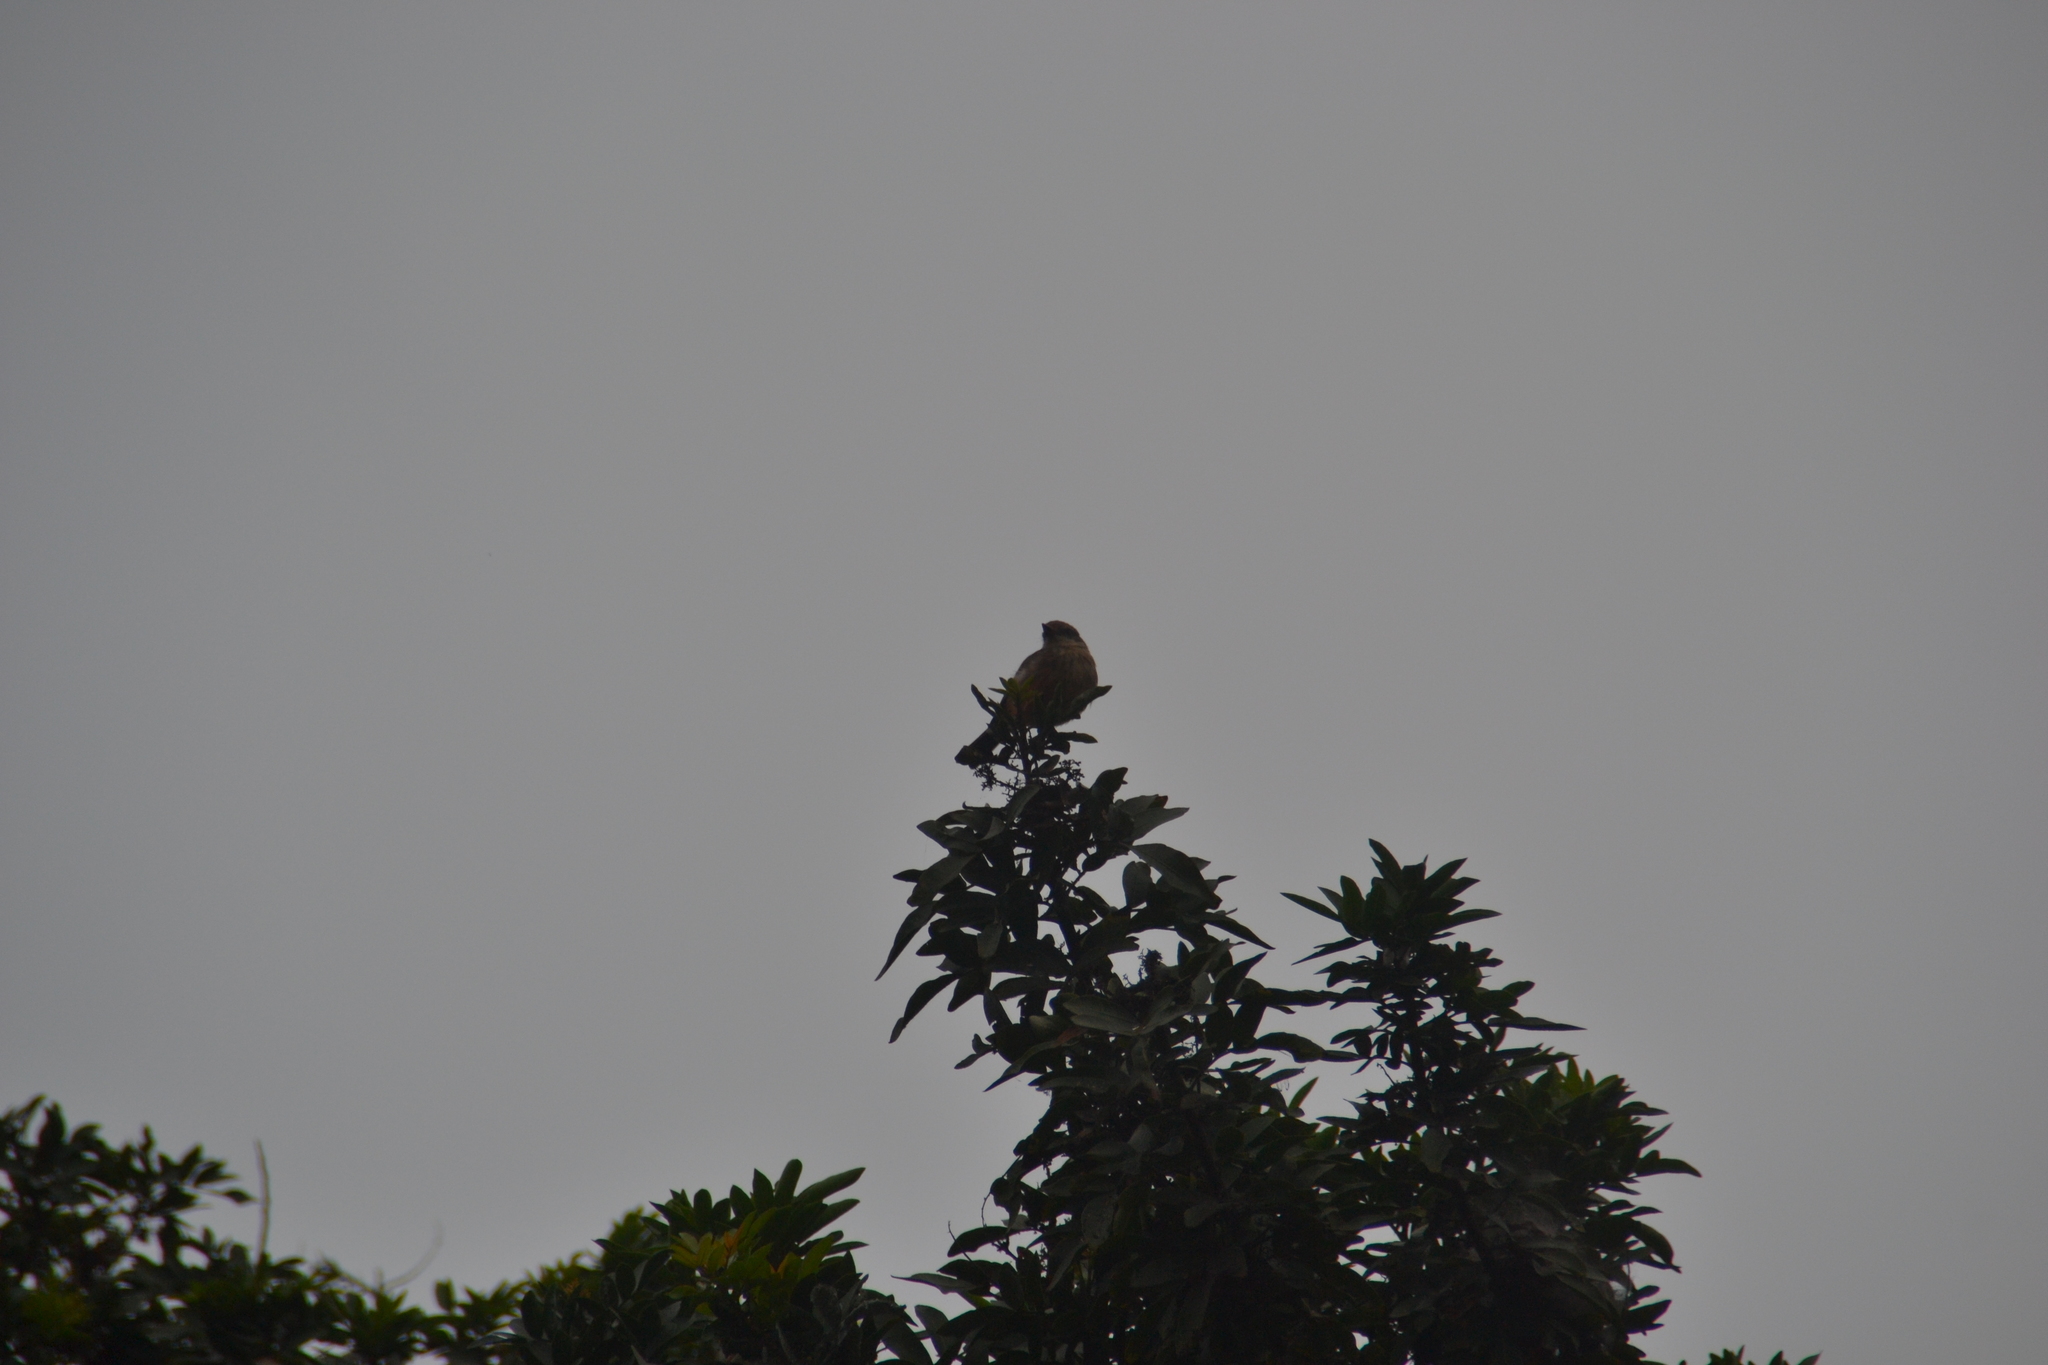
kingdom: Animalia
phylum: Chordata
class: Aves
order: Passeriformes
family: Tyrannidae
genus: Pyrocephalus
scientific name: Pyrocephalus rubinus
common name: Vermilion flycatcher
